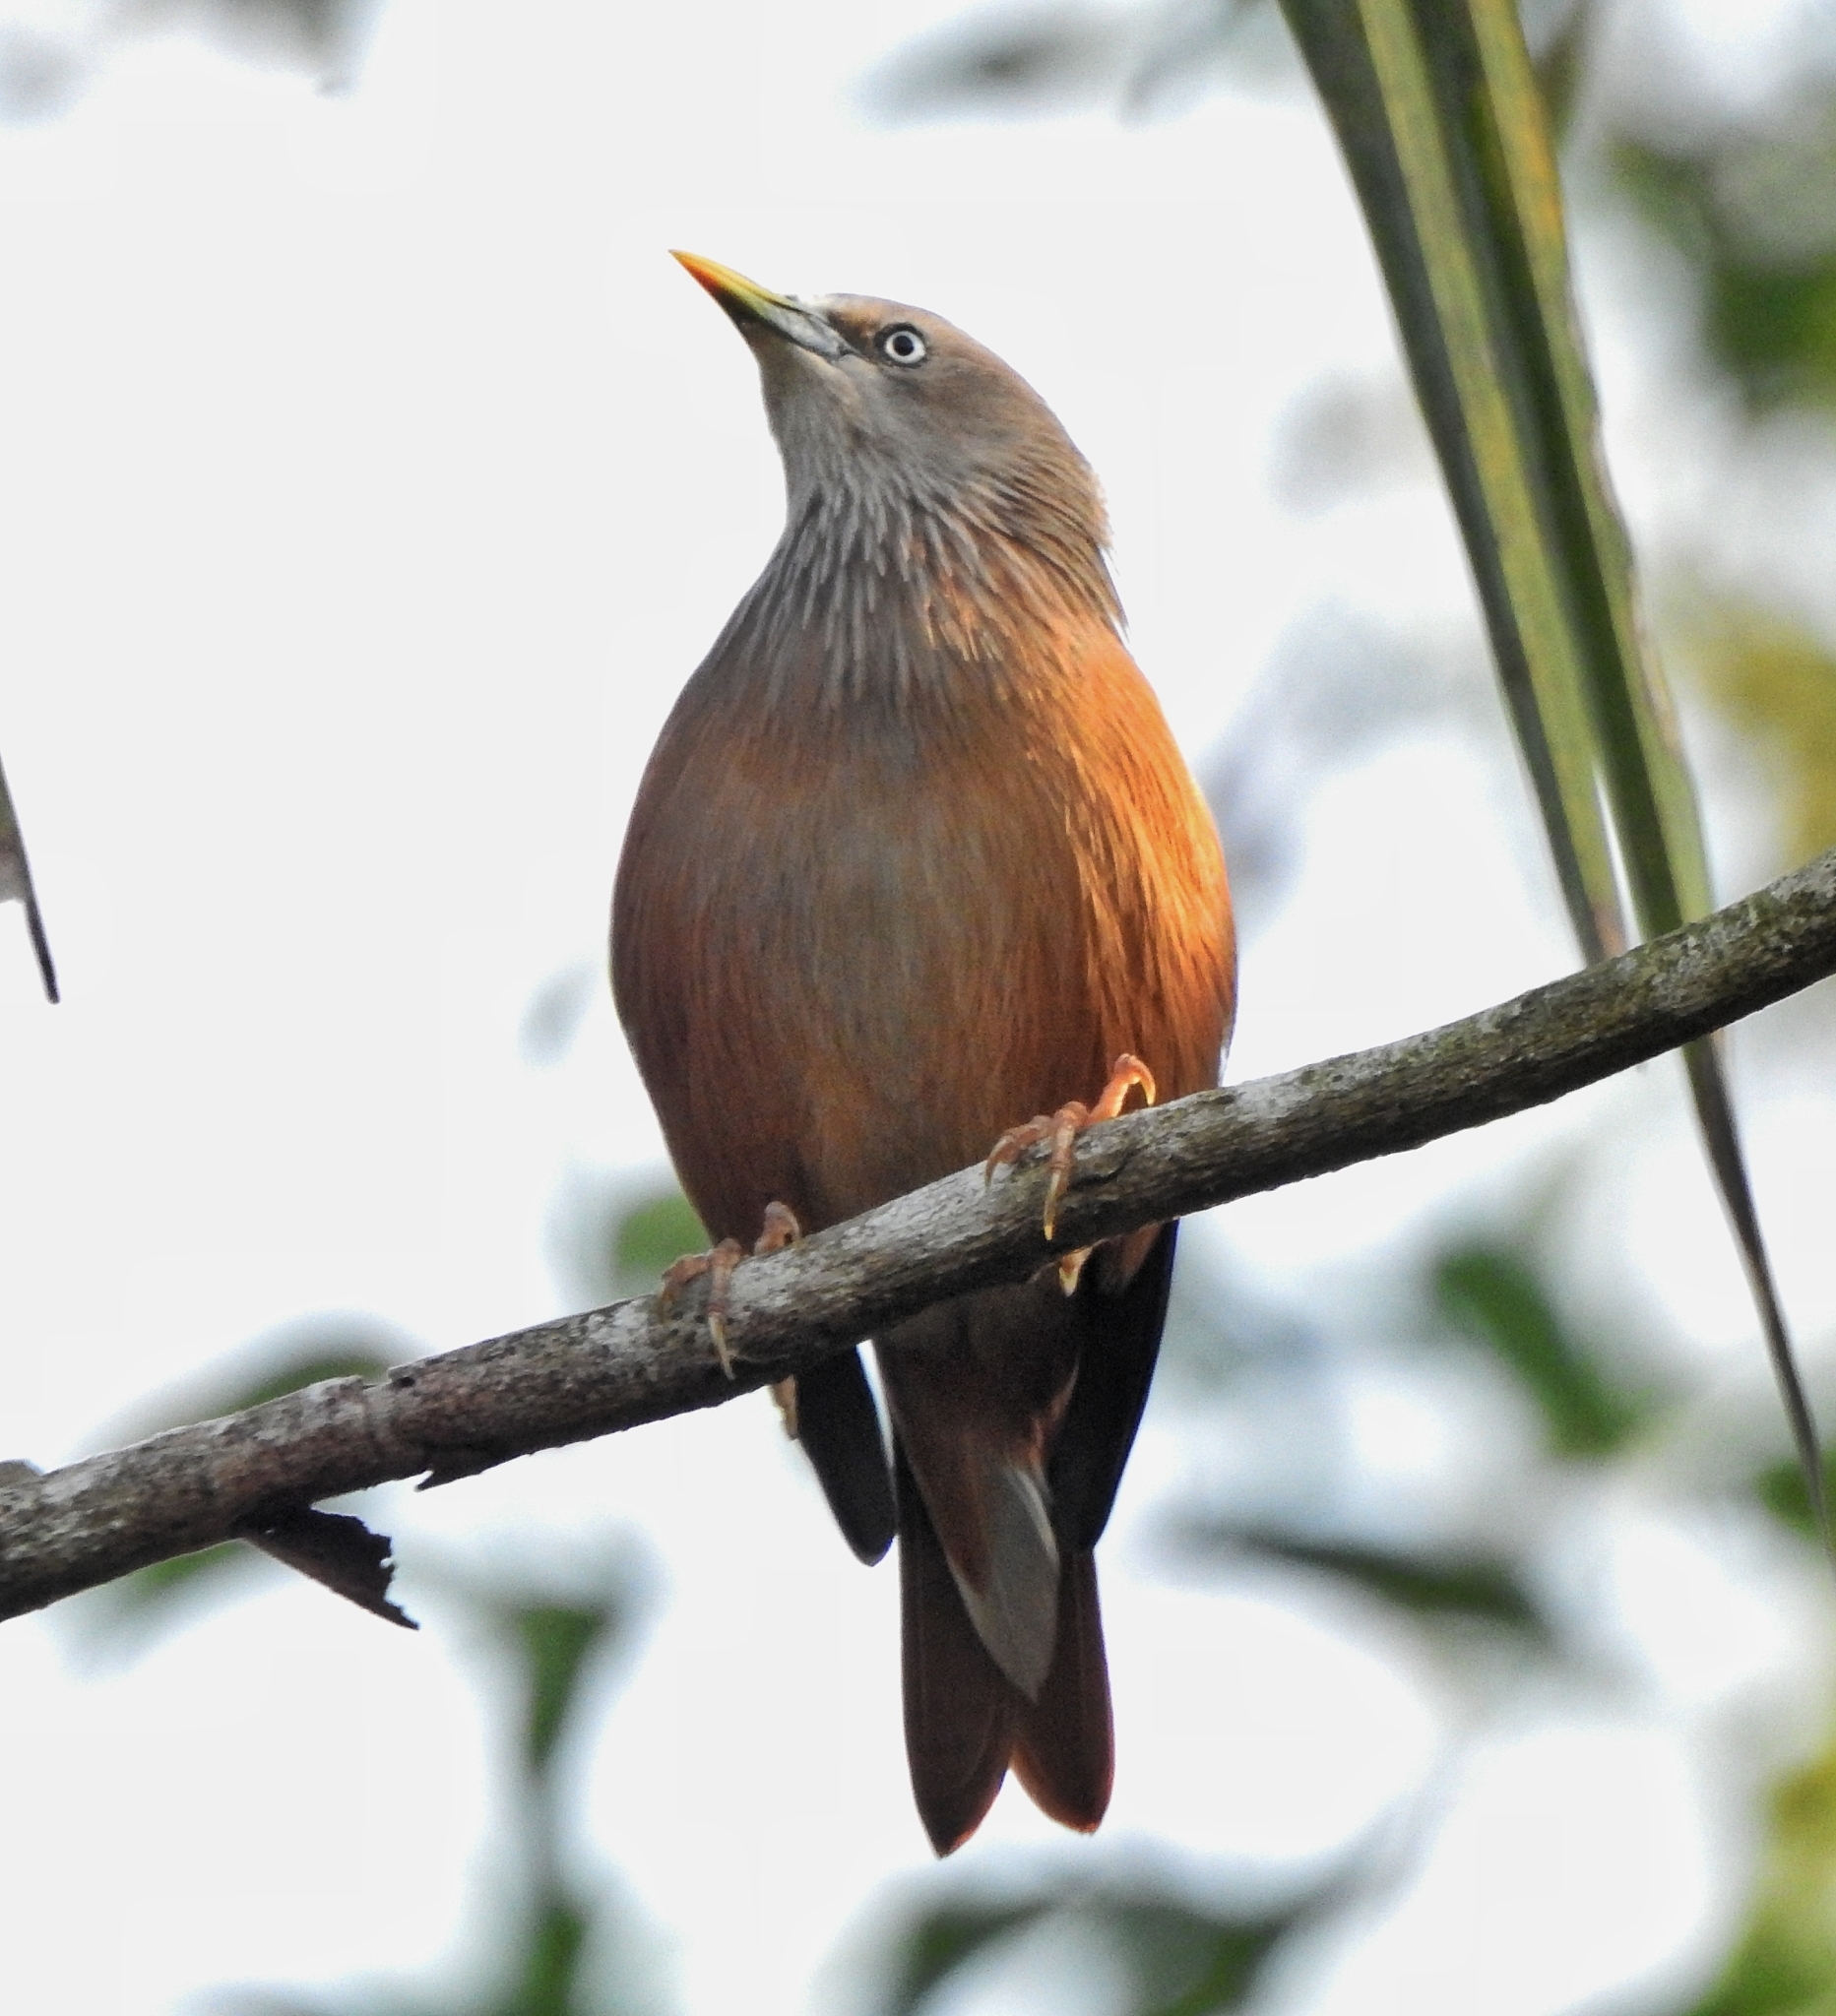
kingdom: Animalia
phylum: Chordata
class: Aves
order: Passeriformes
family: Sturnidae
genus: Sturnia
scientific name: Sturnia malabarica
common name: Chestnut-tailed starling
